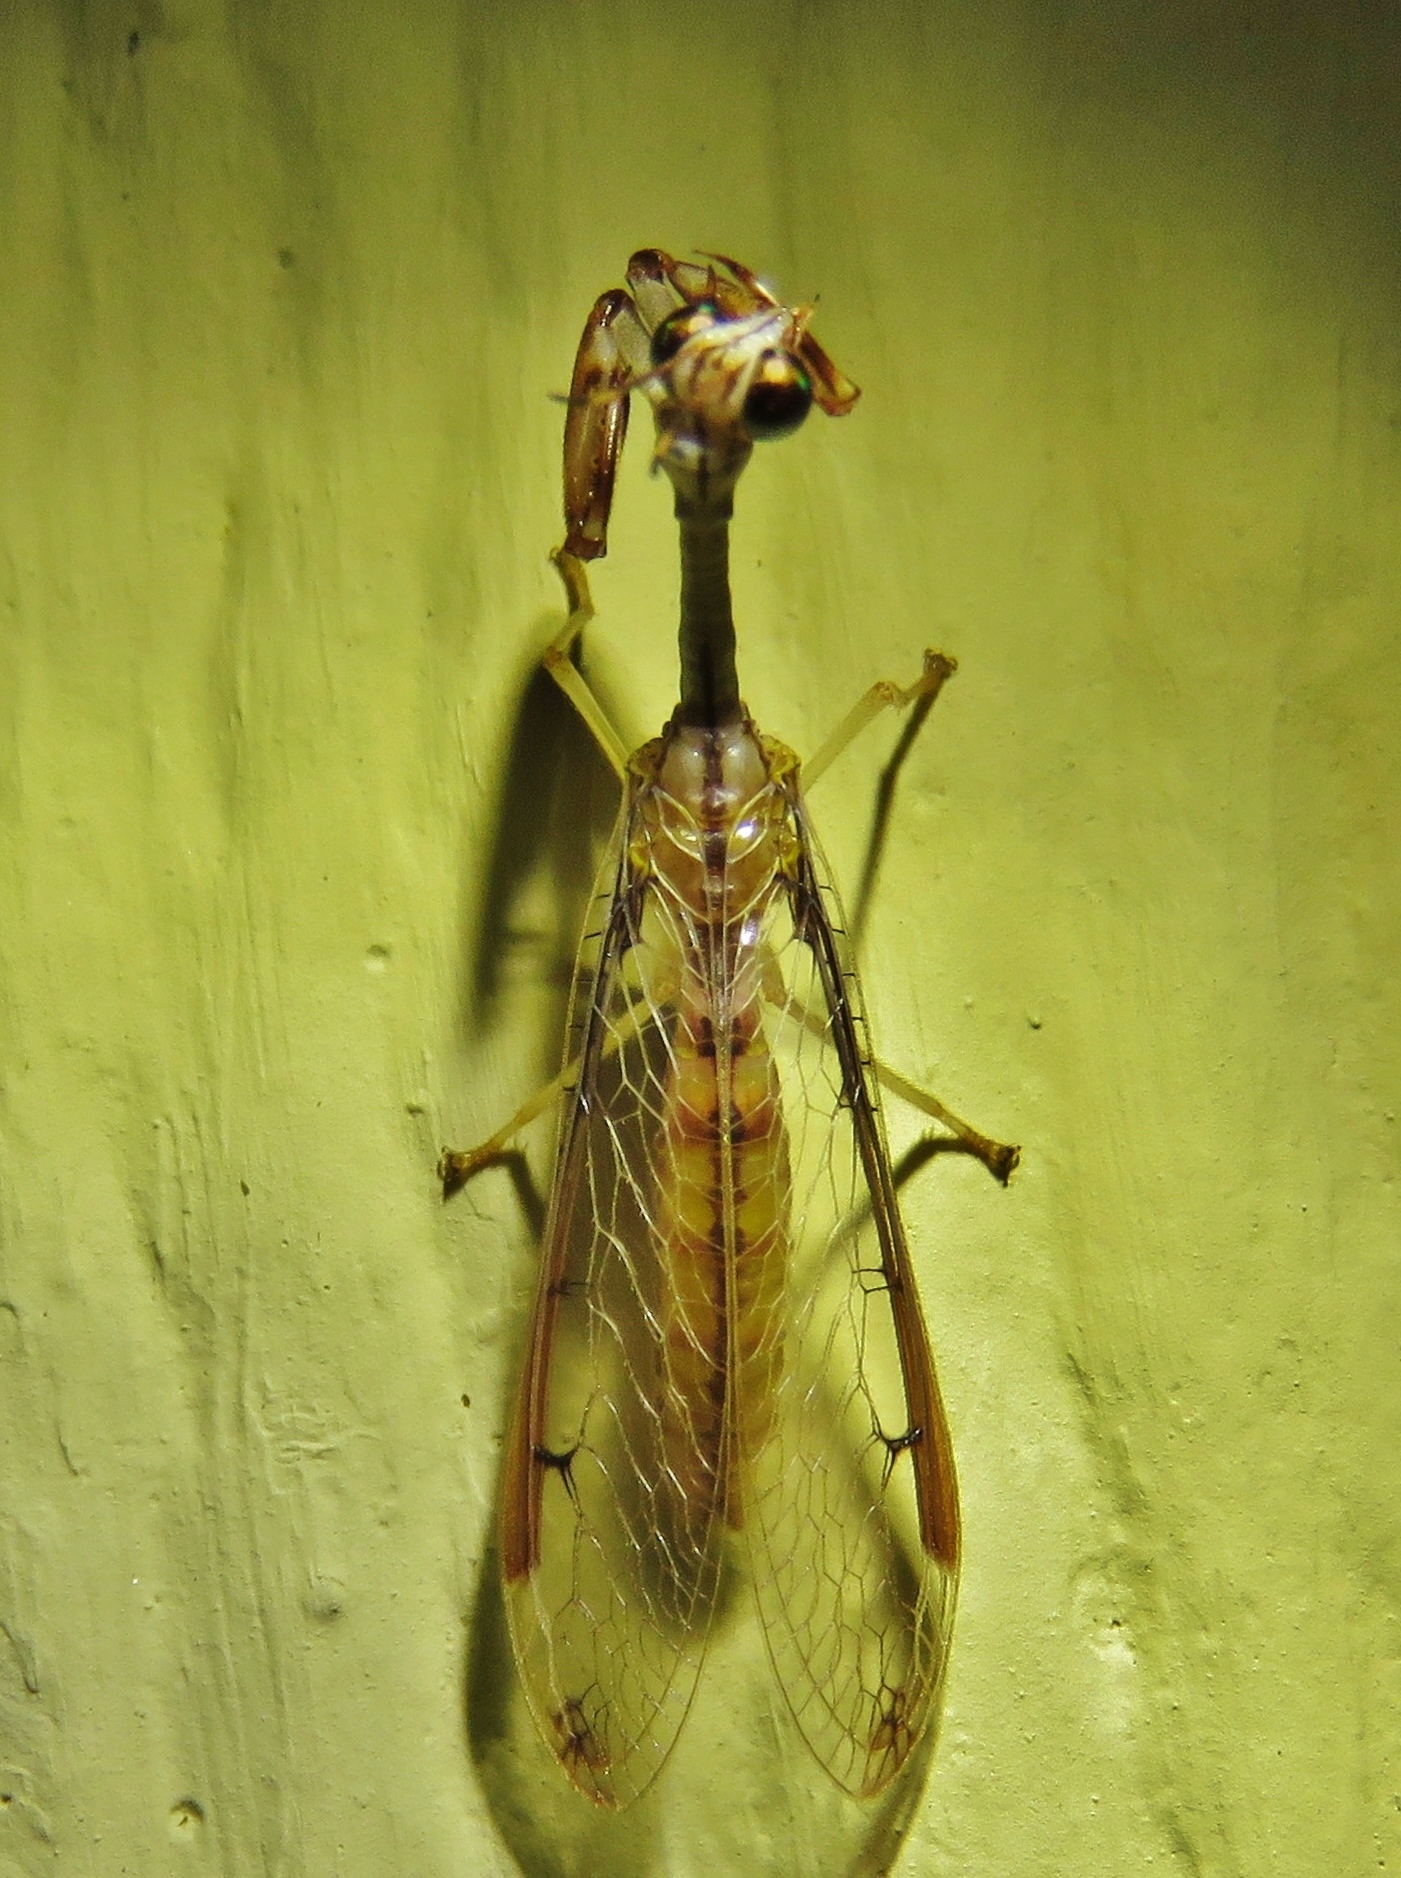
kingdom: Animalia
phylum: Arthropoda
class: Insecta
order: Neuroptera
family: Mantispidae
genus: Dicromantispa
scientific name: Dicromantispa interrupta
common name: Four-spotted mantidfly
